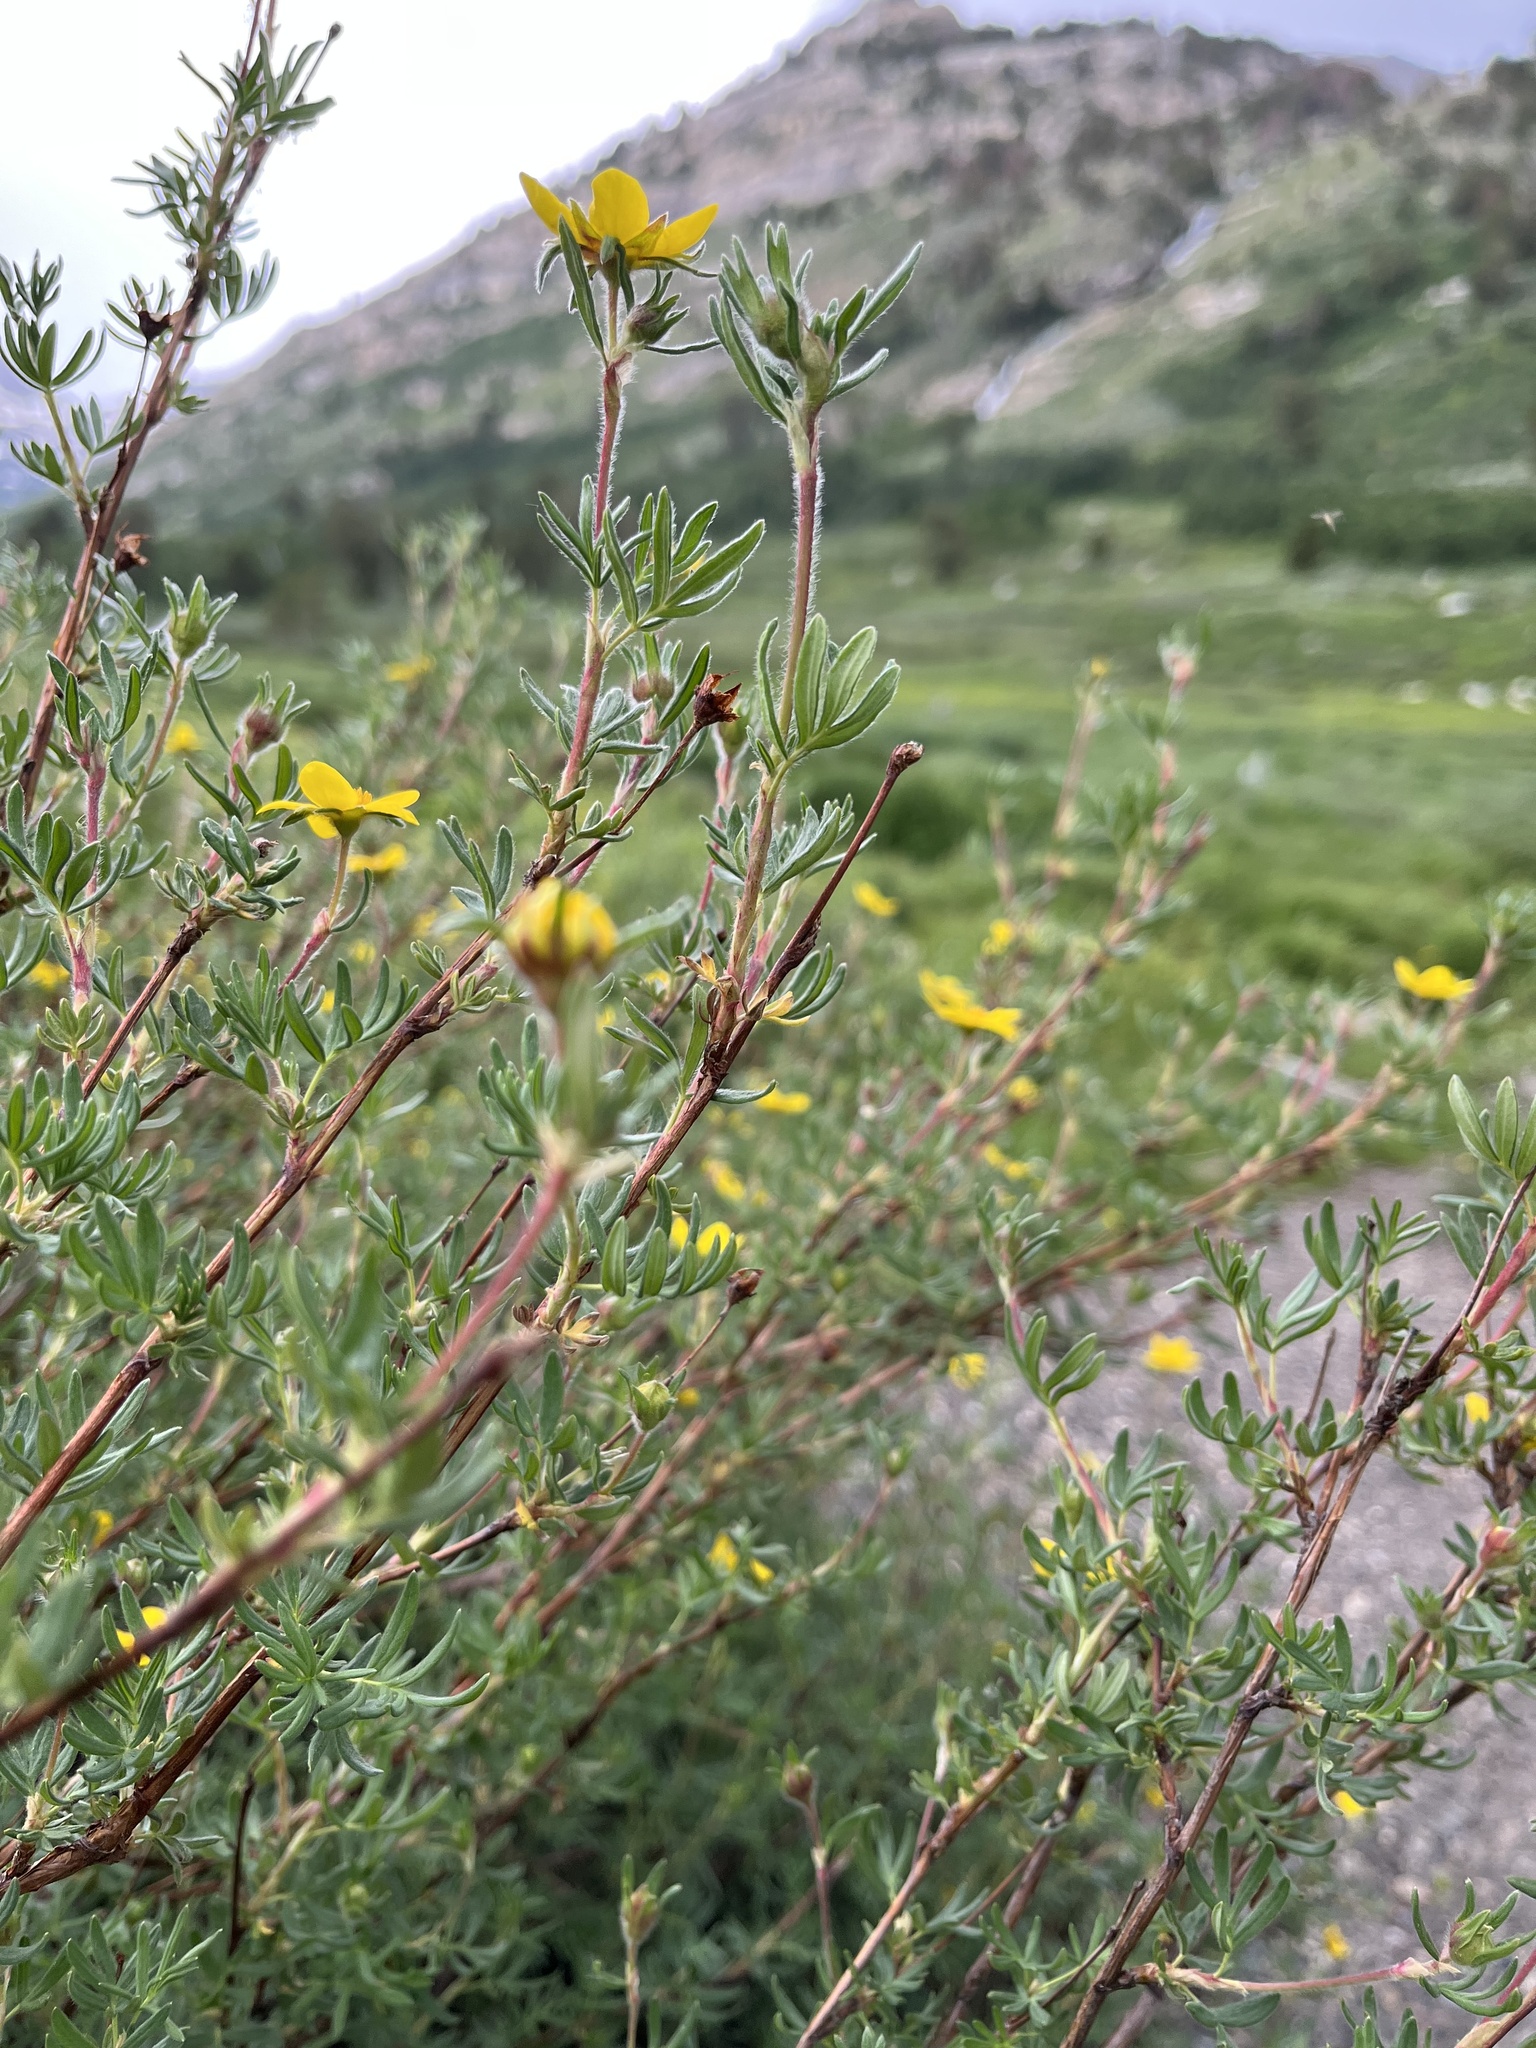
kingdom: Plantae
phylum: Tracheophyta
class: Magnoliopsida
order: Rosales
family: Rosaceae
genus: Dasiphora
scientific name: Dasiphora fruticosa
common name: Shrubby cinquefoil
